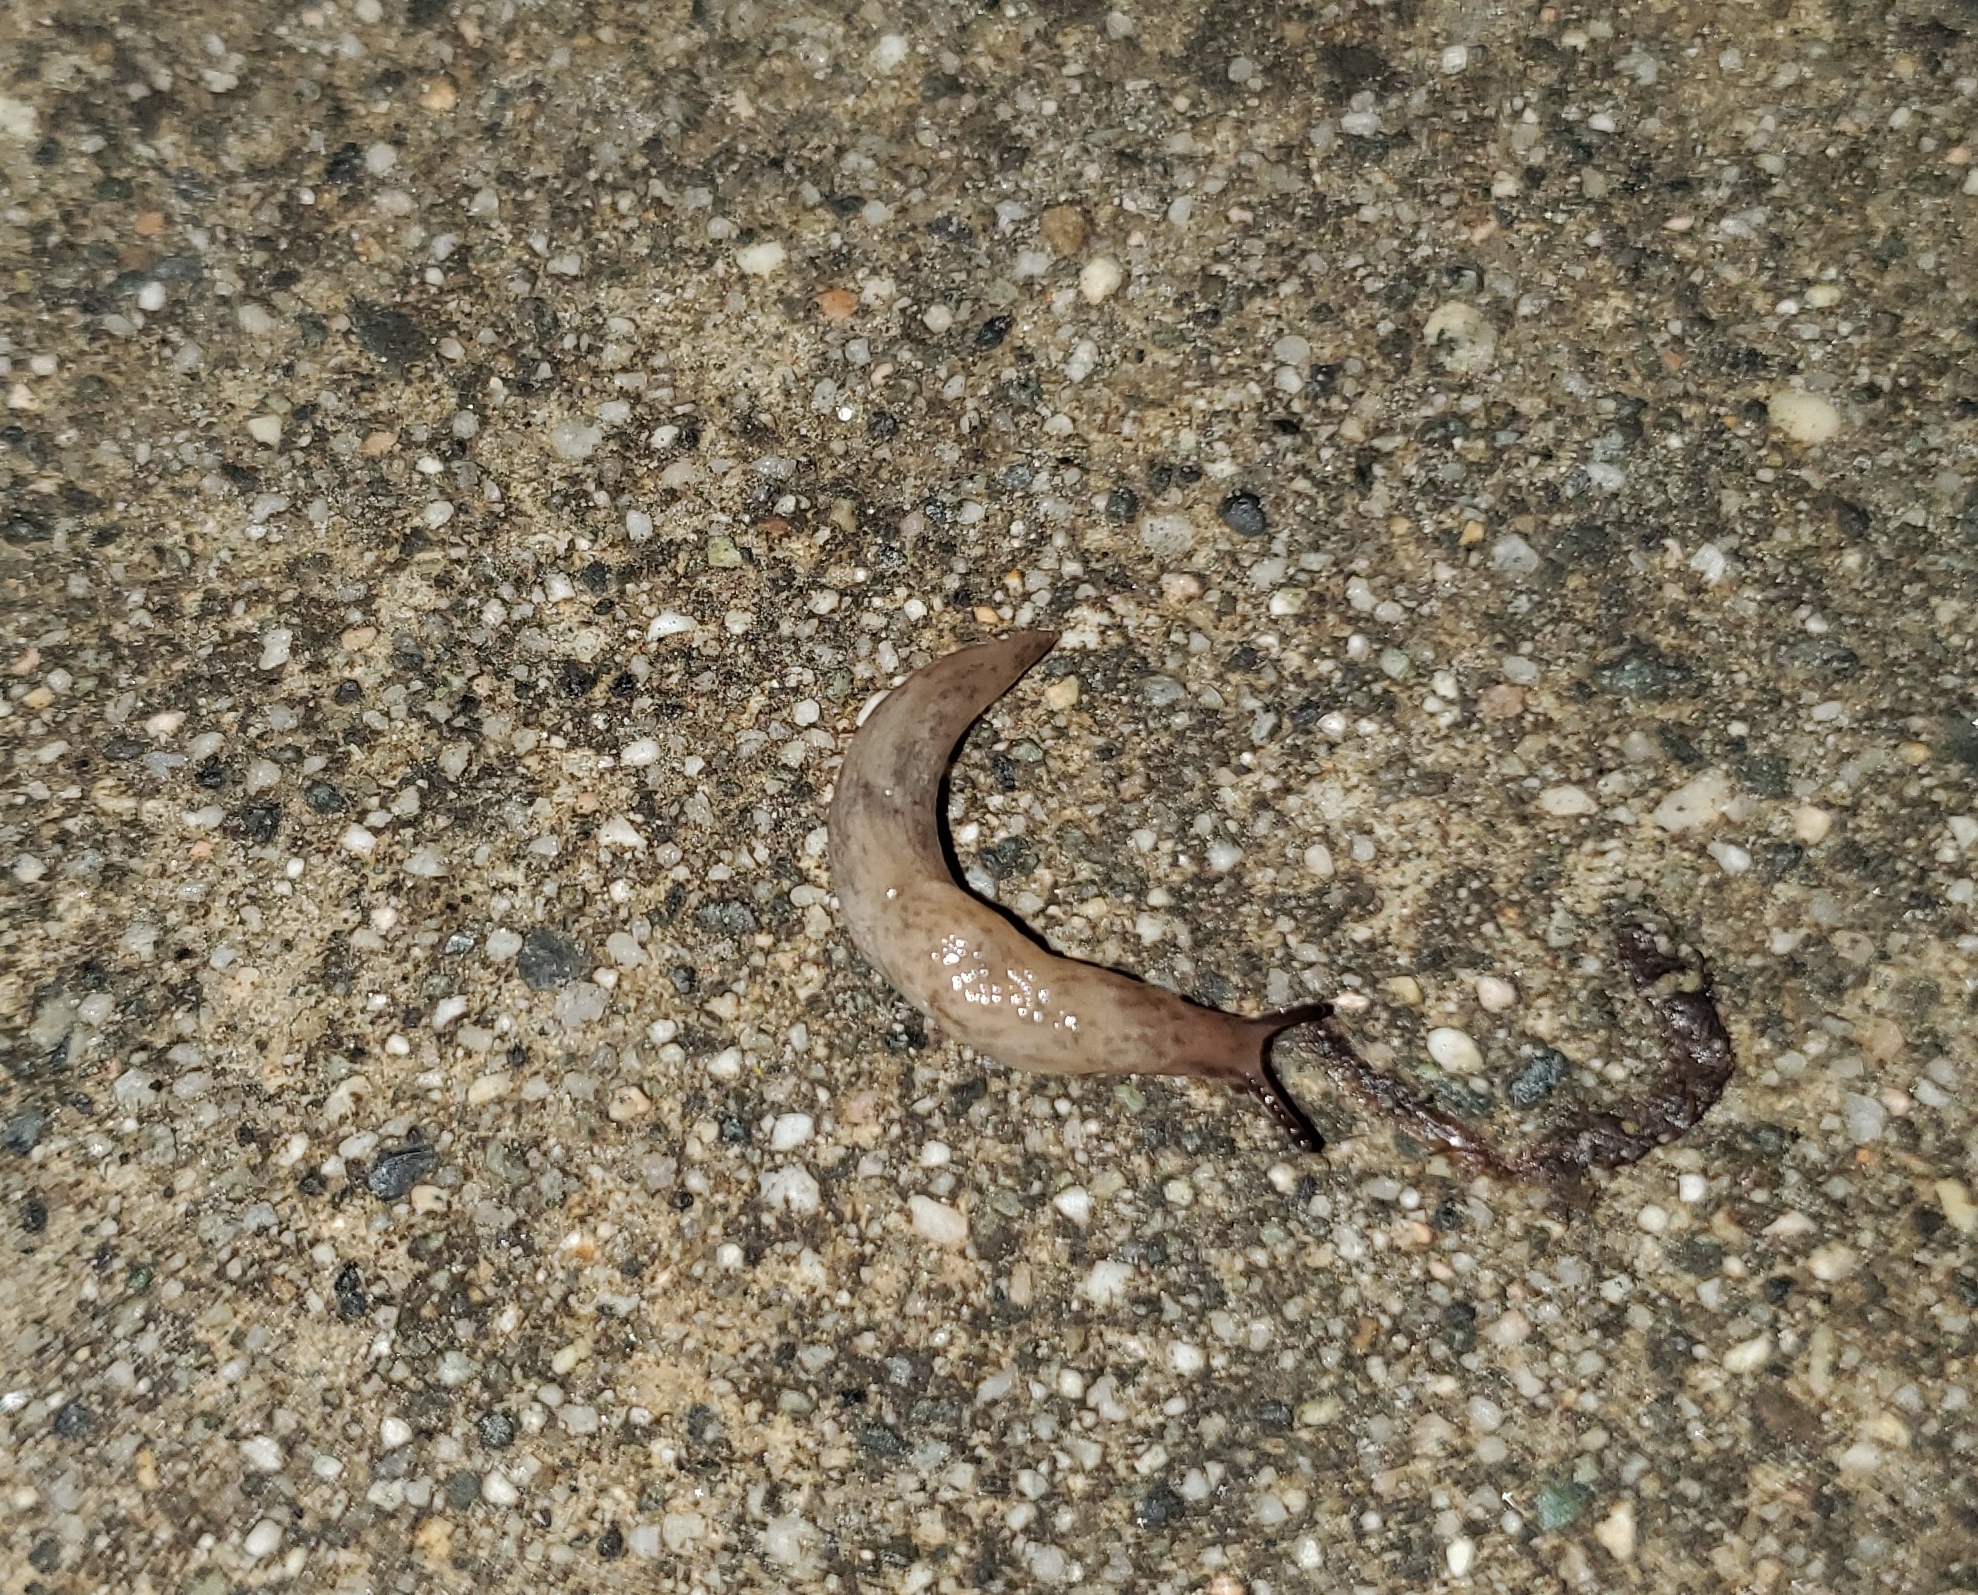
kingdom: Animalia
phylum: Mollusca
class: Gastropoda
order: Stylommatophora
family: Agriolimacidae
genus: Deroceras
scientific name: Deroceras reticulatum
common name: Gray field slug
